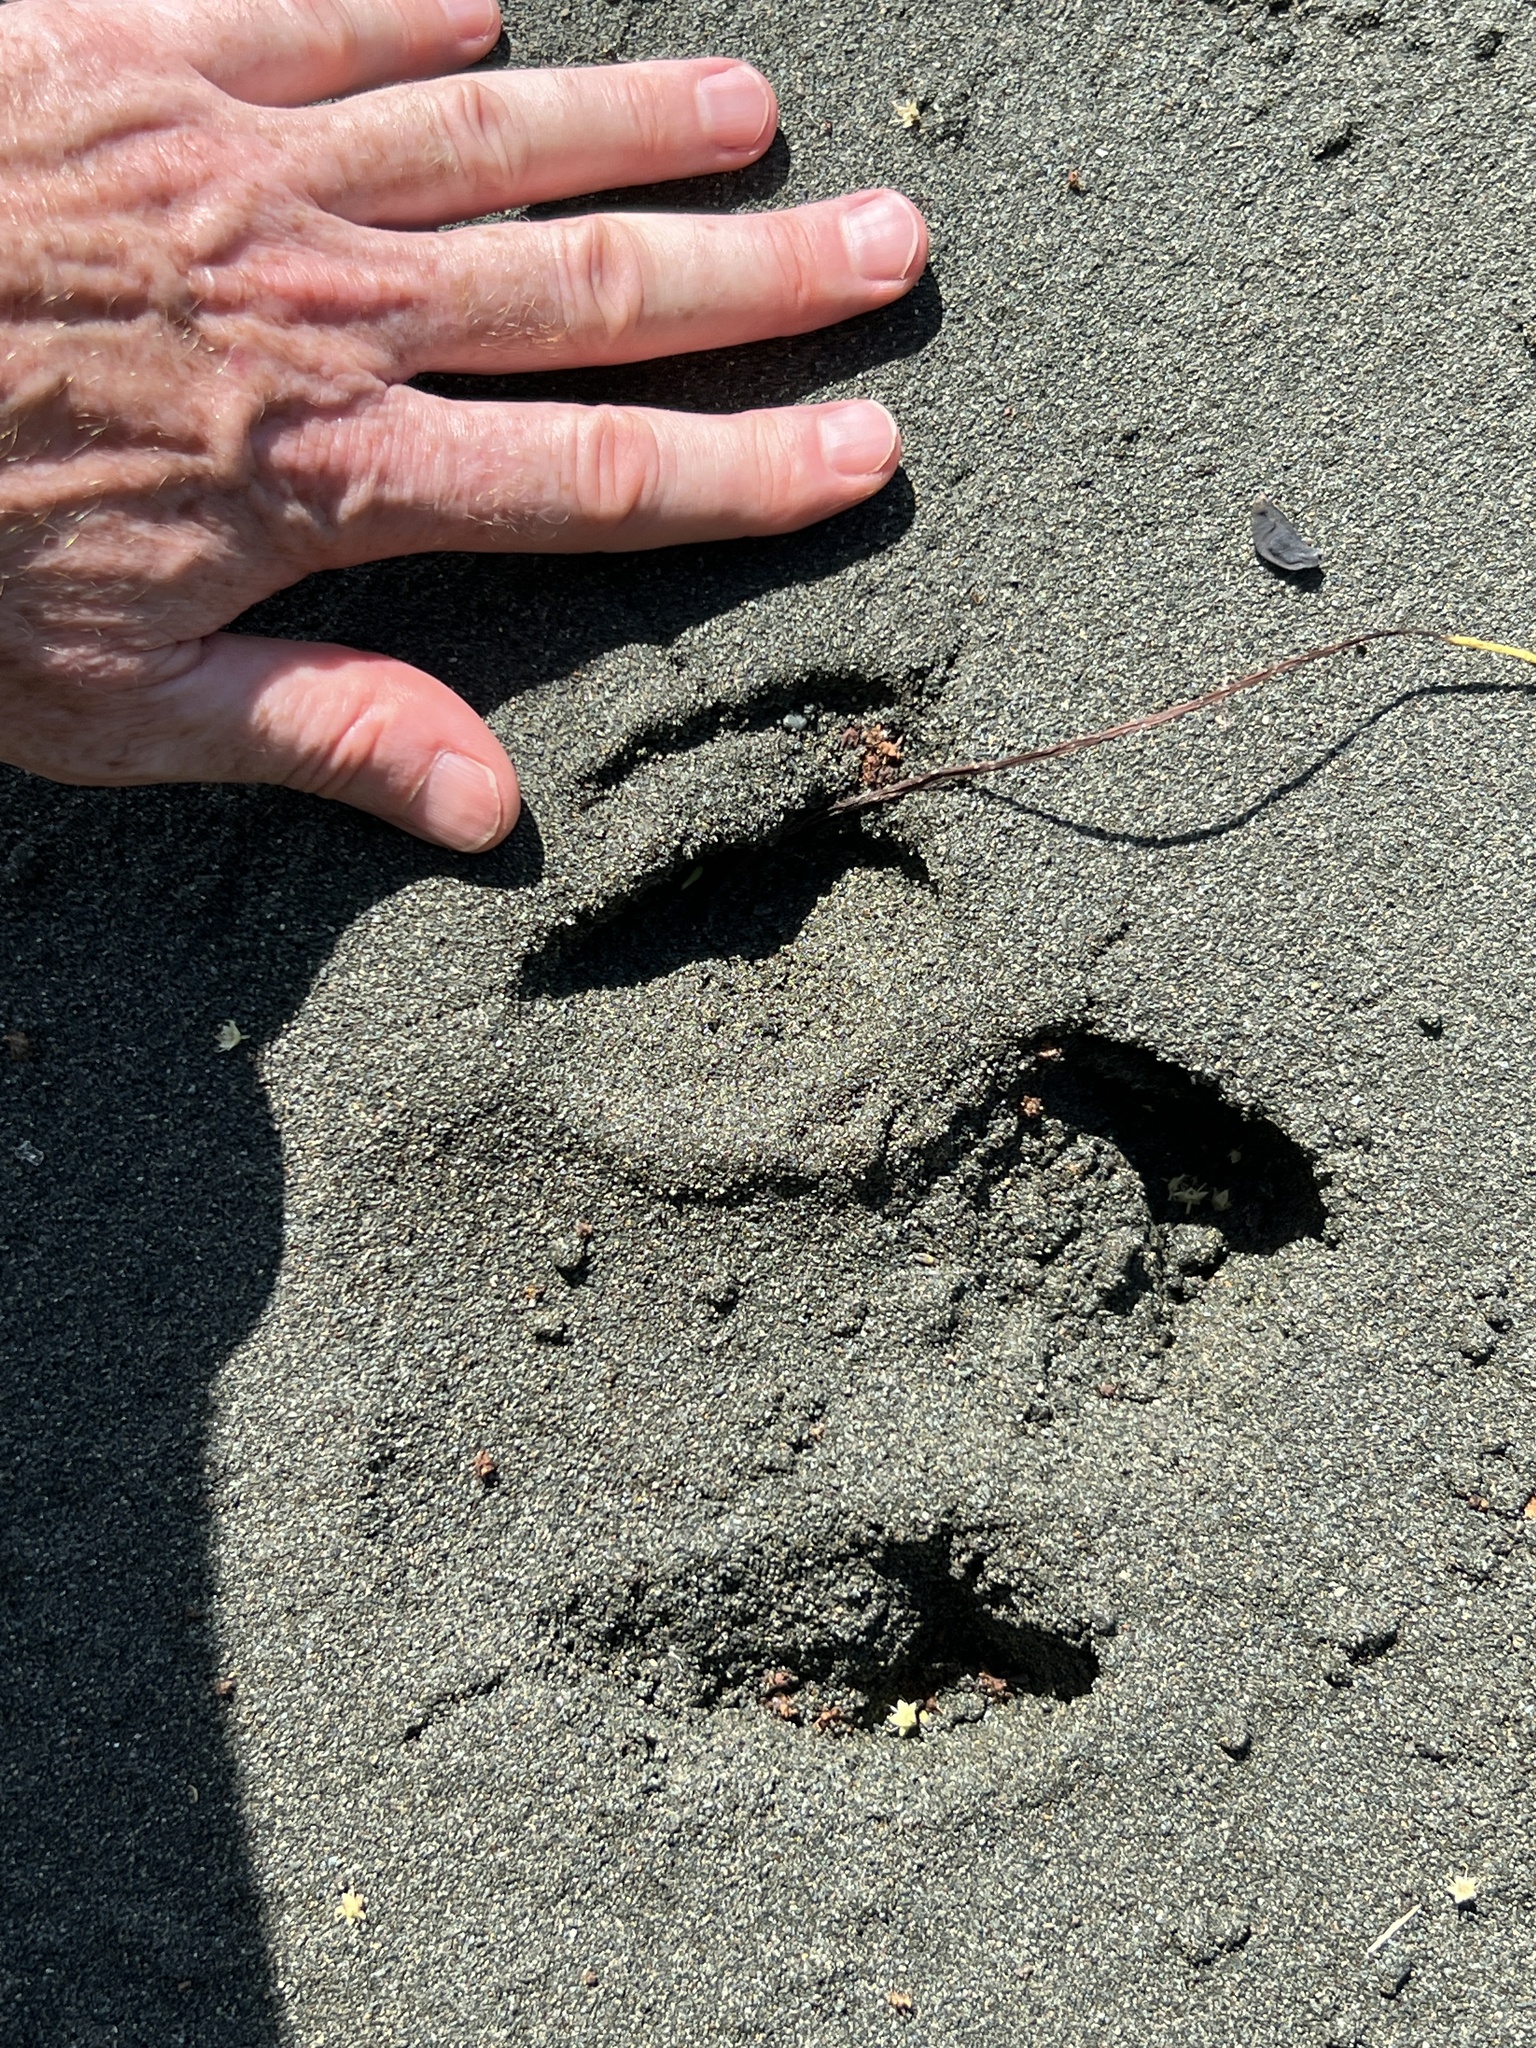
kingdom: Animalia
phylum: Chordata
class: Mammalia
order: Perissodactyla
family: Tapiridae
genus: Tapirella
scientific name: Tapirella bairdii
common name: Baird's tapir
